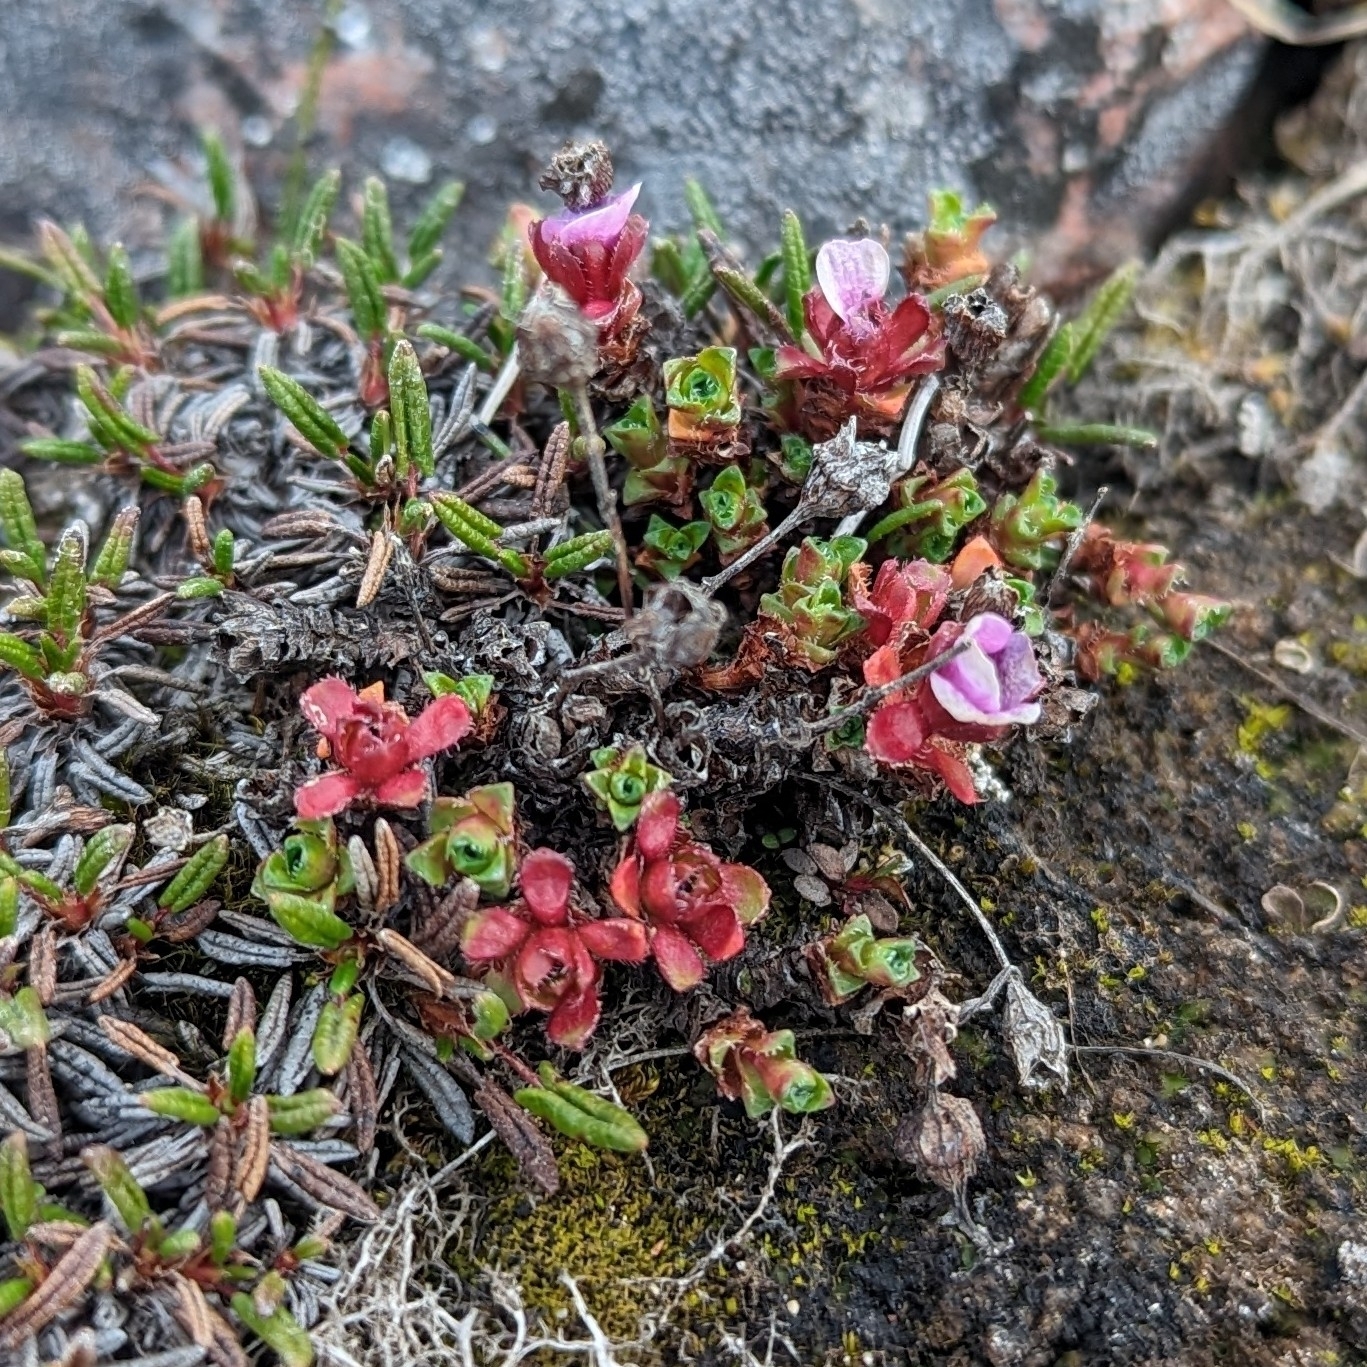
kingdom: Plantae
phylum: Tracheophyta
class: Magnoliopsida
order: Saxifragales
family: Saxifragaceae
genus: Saxifraga
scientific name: Saxifraga oppositifolia
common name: Purple saxifrage
